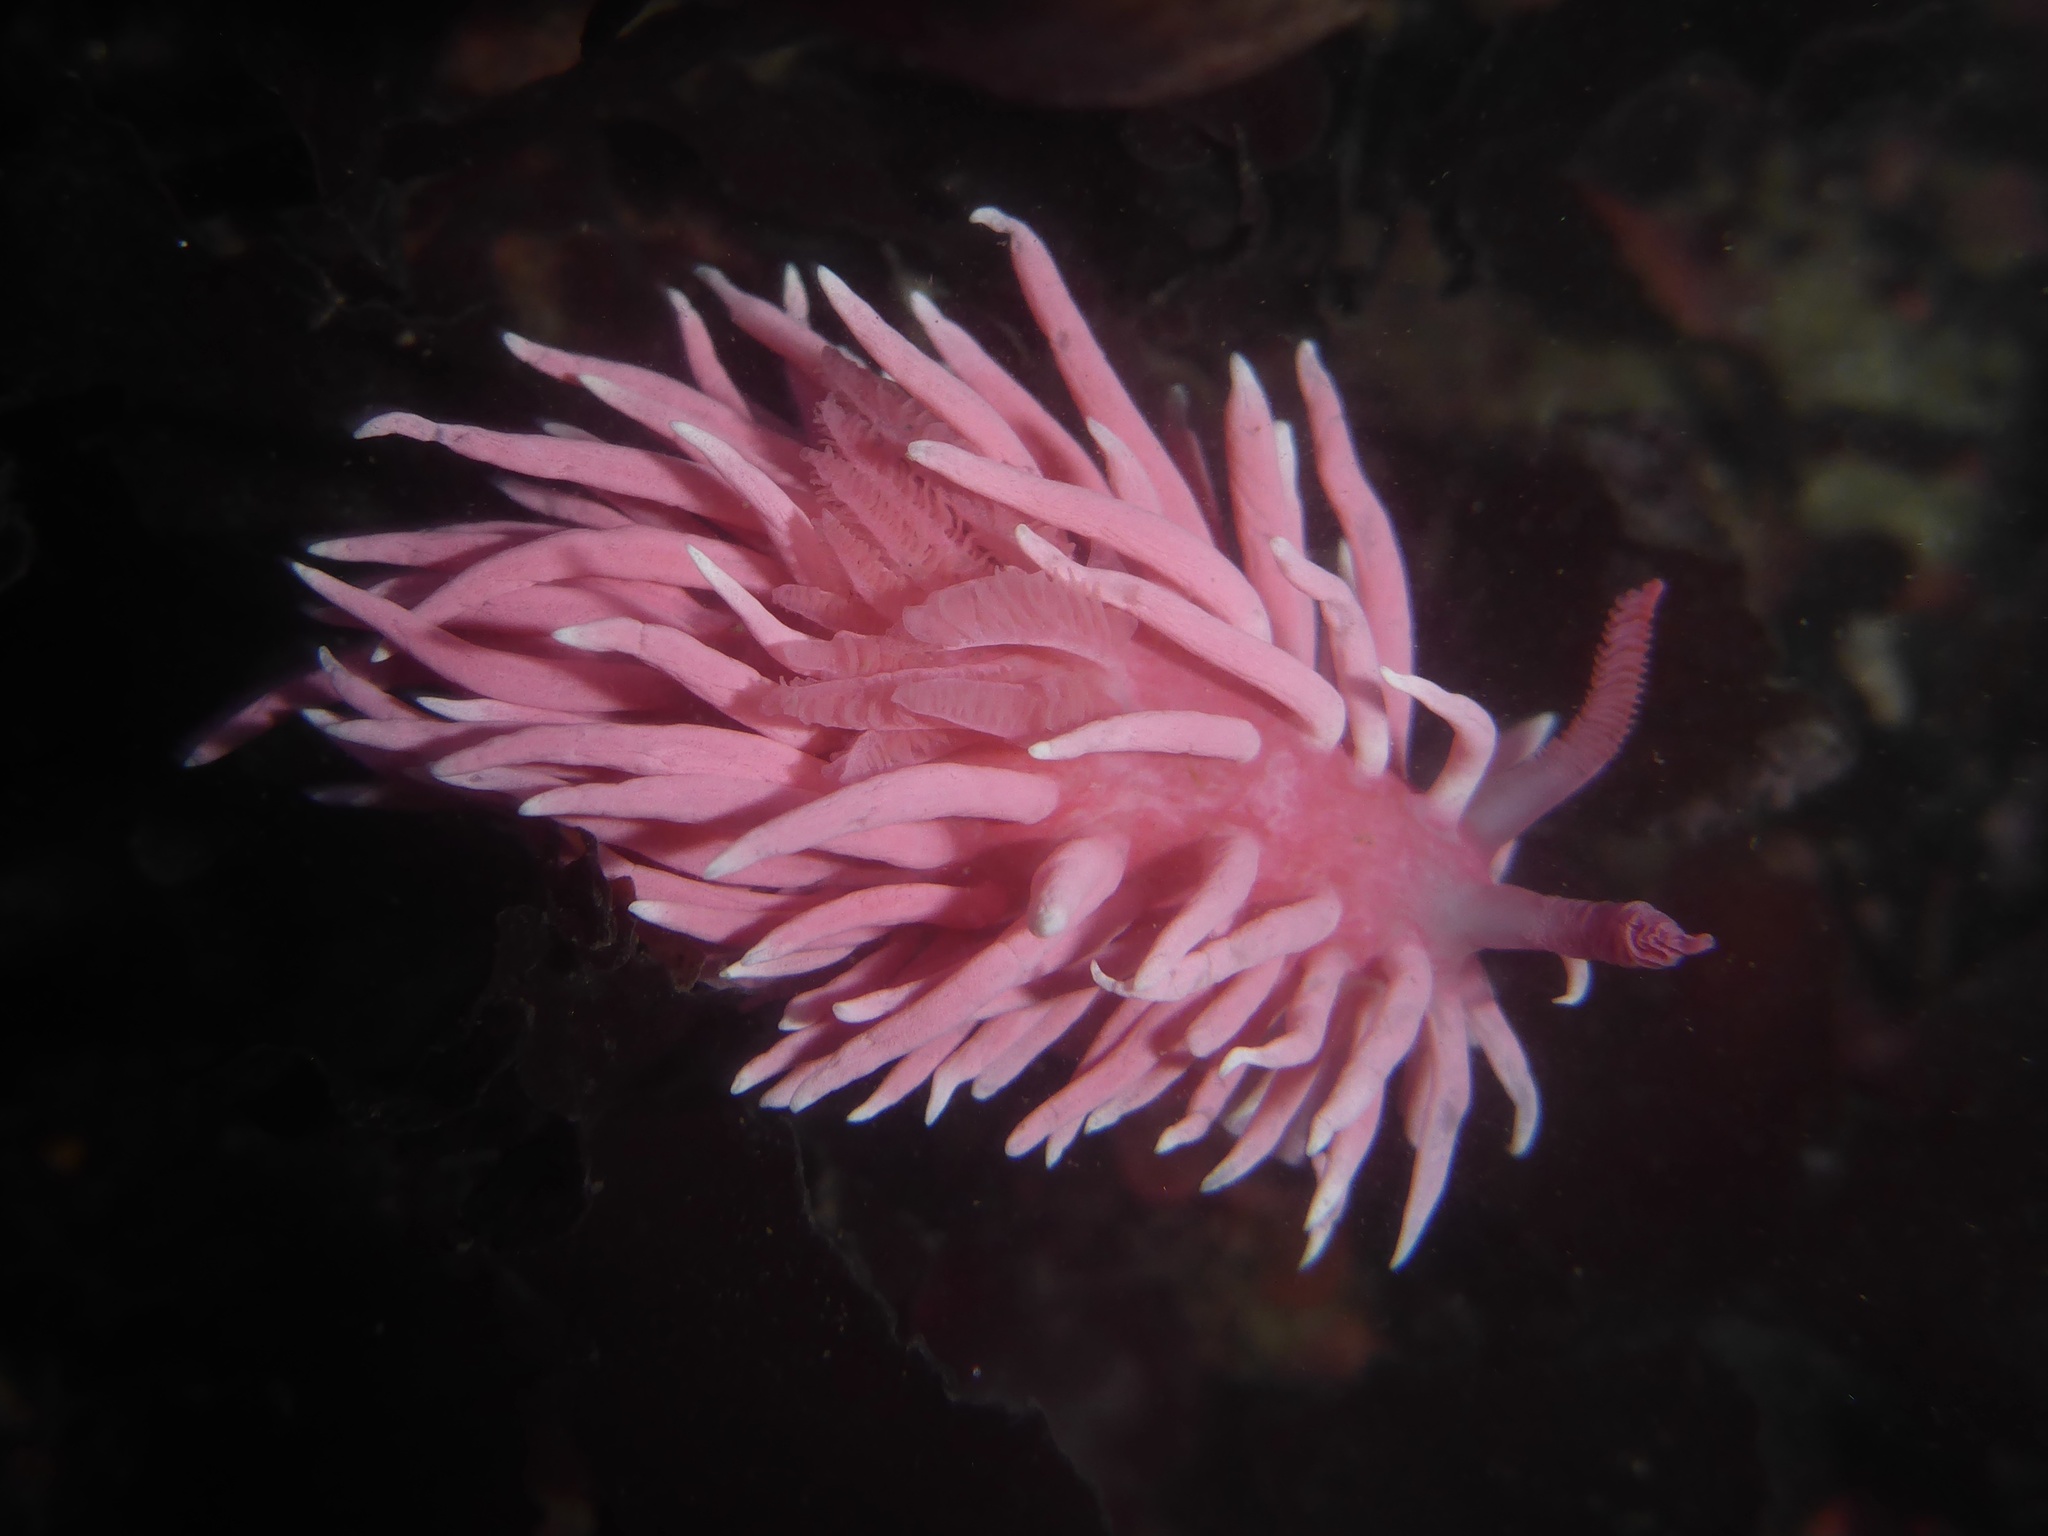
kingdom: Animalia
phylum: Mollusca
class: Gastropoda
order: Nudibranchia
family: Goniodorididae
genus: Okenia
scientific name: Okenia
